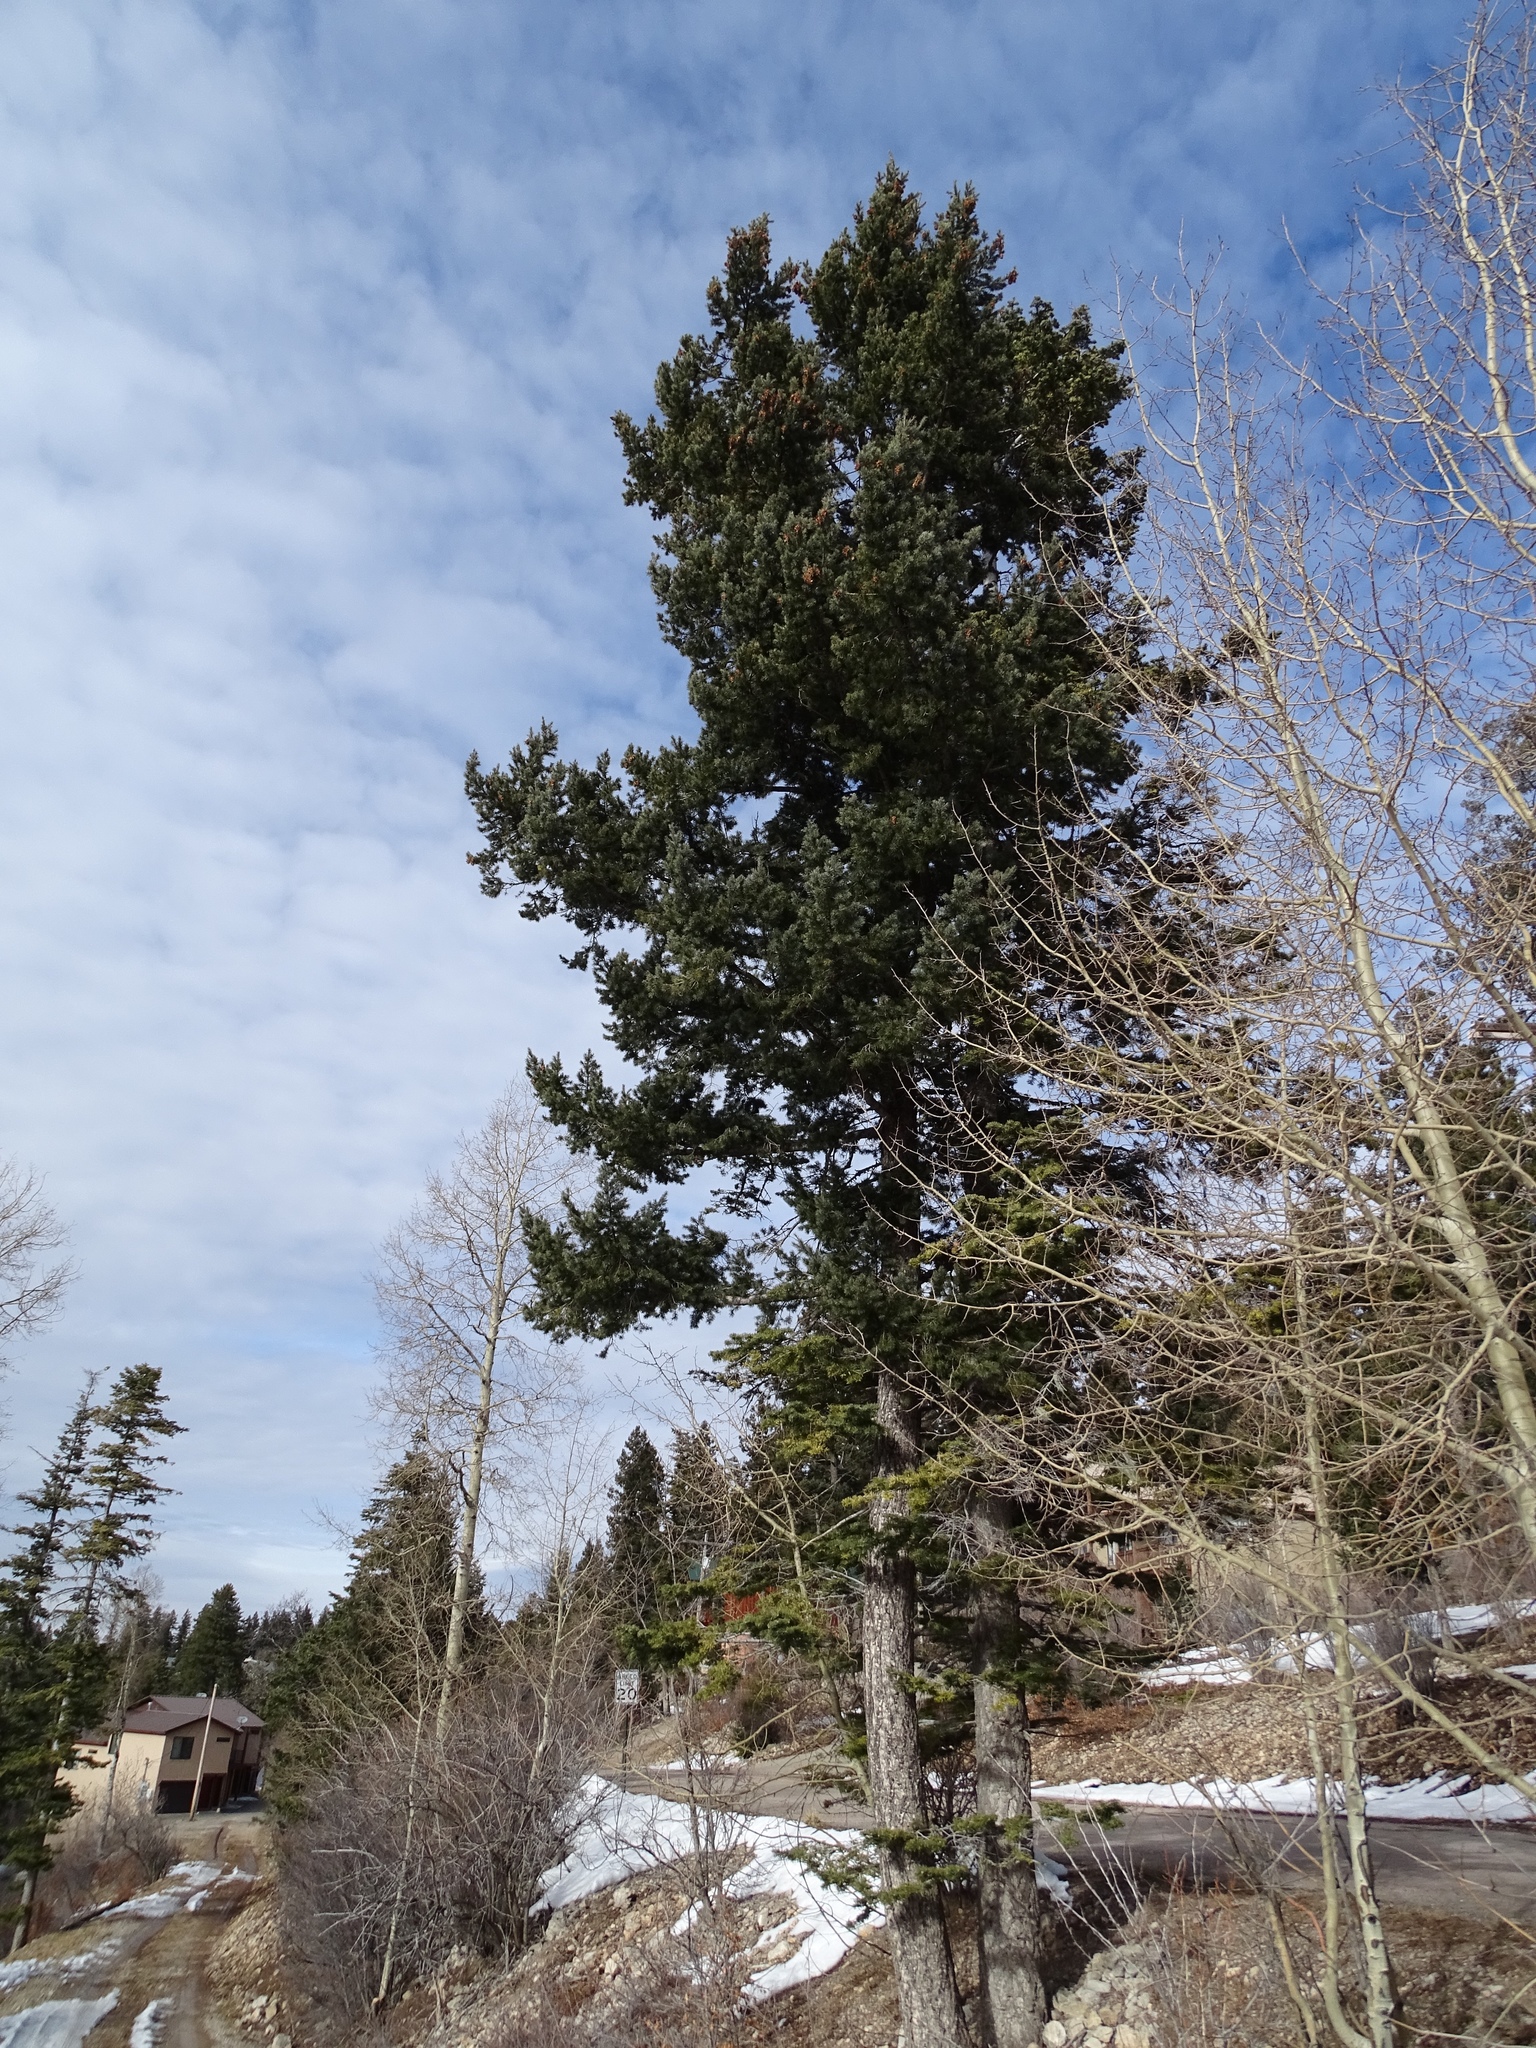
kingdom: Plantae
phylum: Tracheophyta
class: Pinopsida
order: Pinales
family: Pinaceae
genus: Pseudotsuga
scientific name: Pseudotsuga menziesii
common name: Douglas fir
